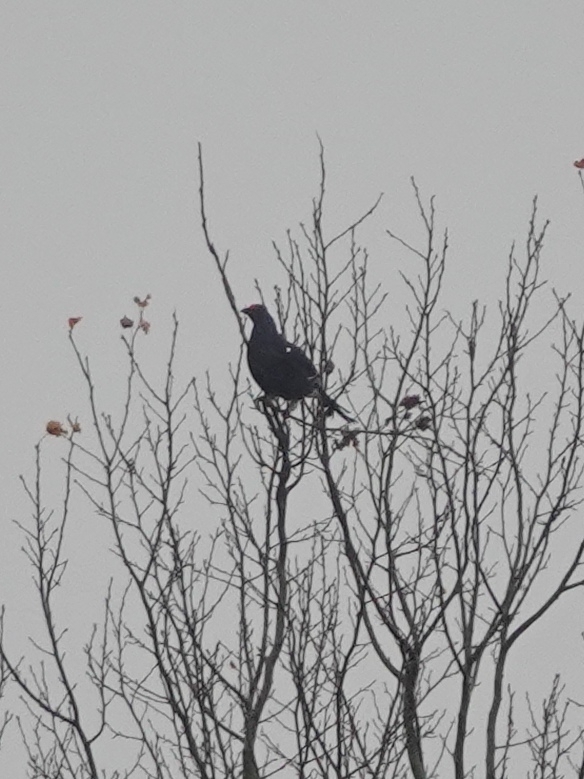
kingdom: Animalia
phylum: Chordata
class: Aves
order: Galliformes
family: Phasianidae
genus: Lyrurus
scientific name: Lyrurus tetrix
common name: Black grouse
